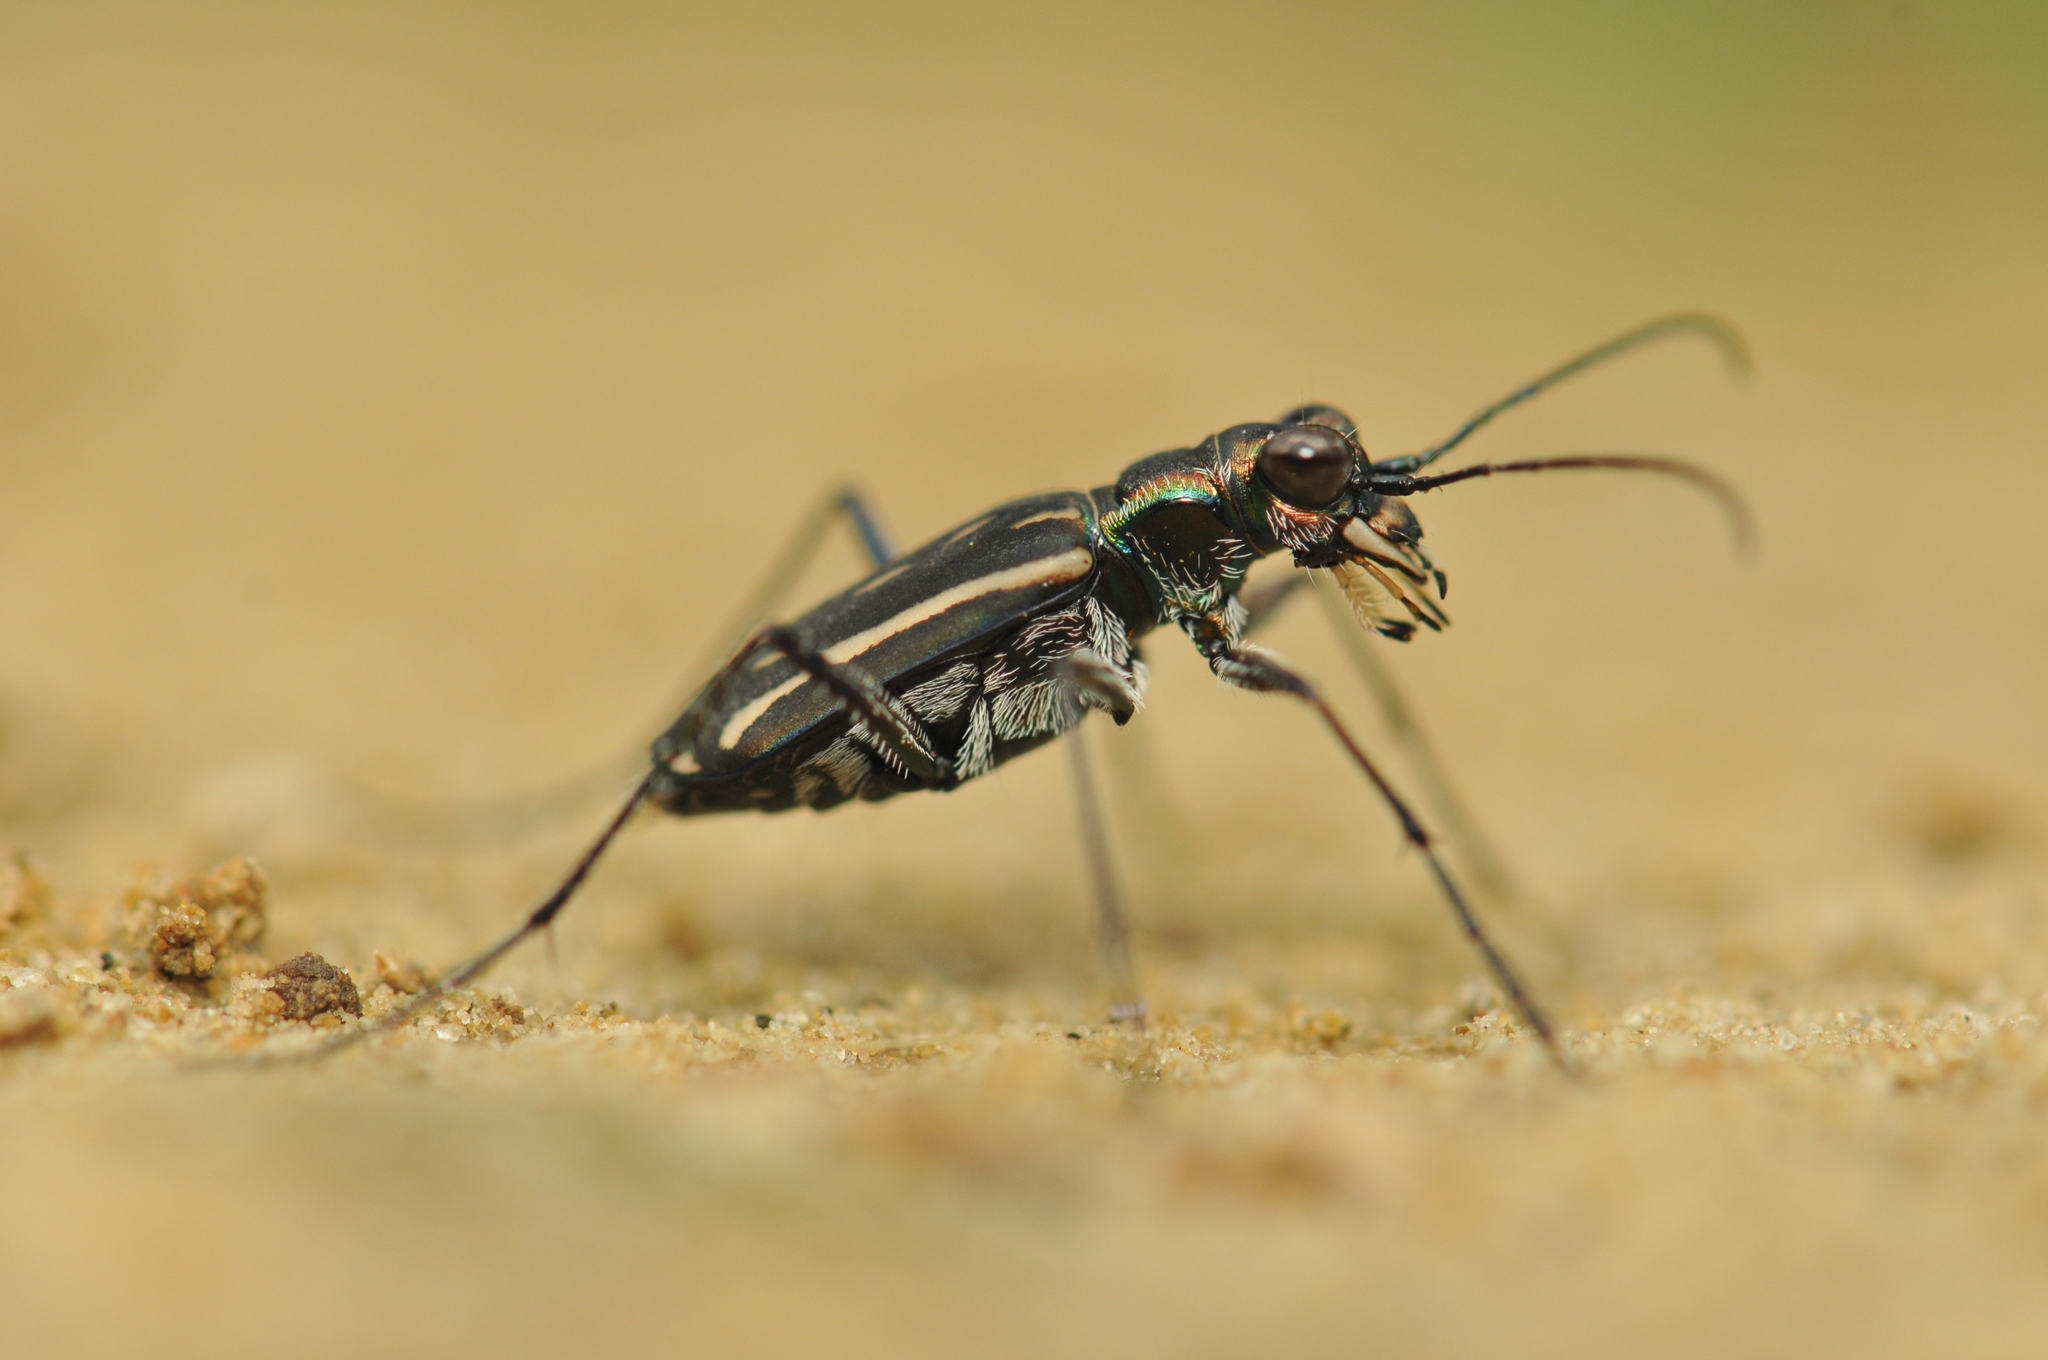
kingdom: Animalia
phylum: Arthropoda
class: Insecta
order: Coleoptera
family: Carabidae
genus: Lophyra
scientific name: Lophyra striolata
